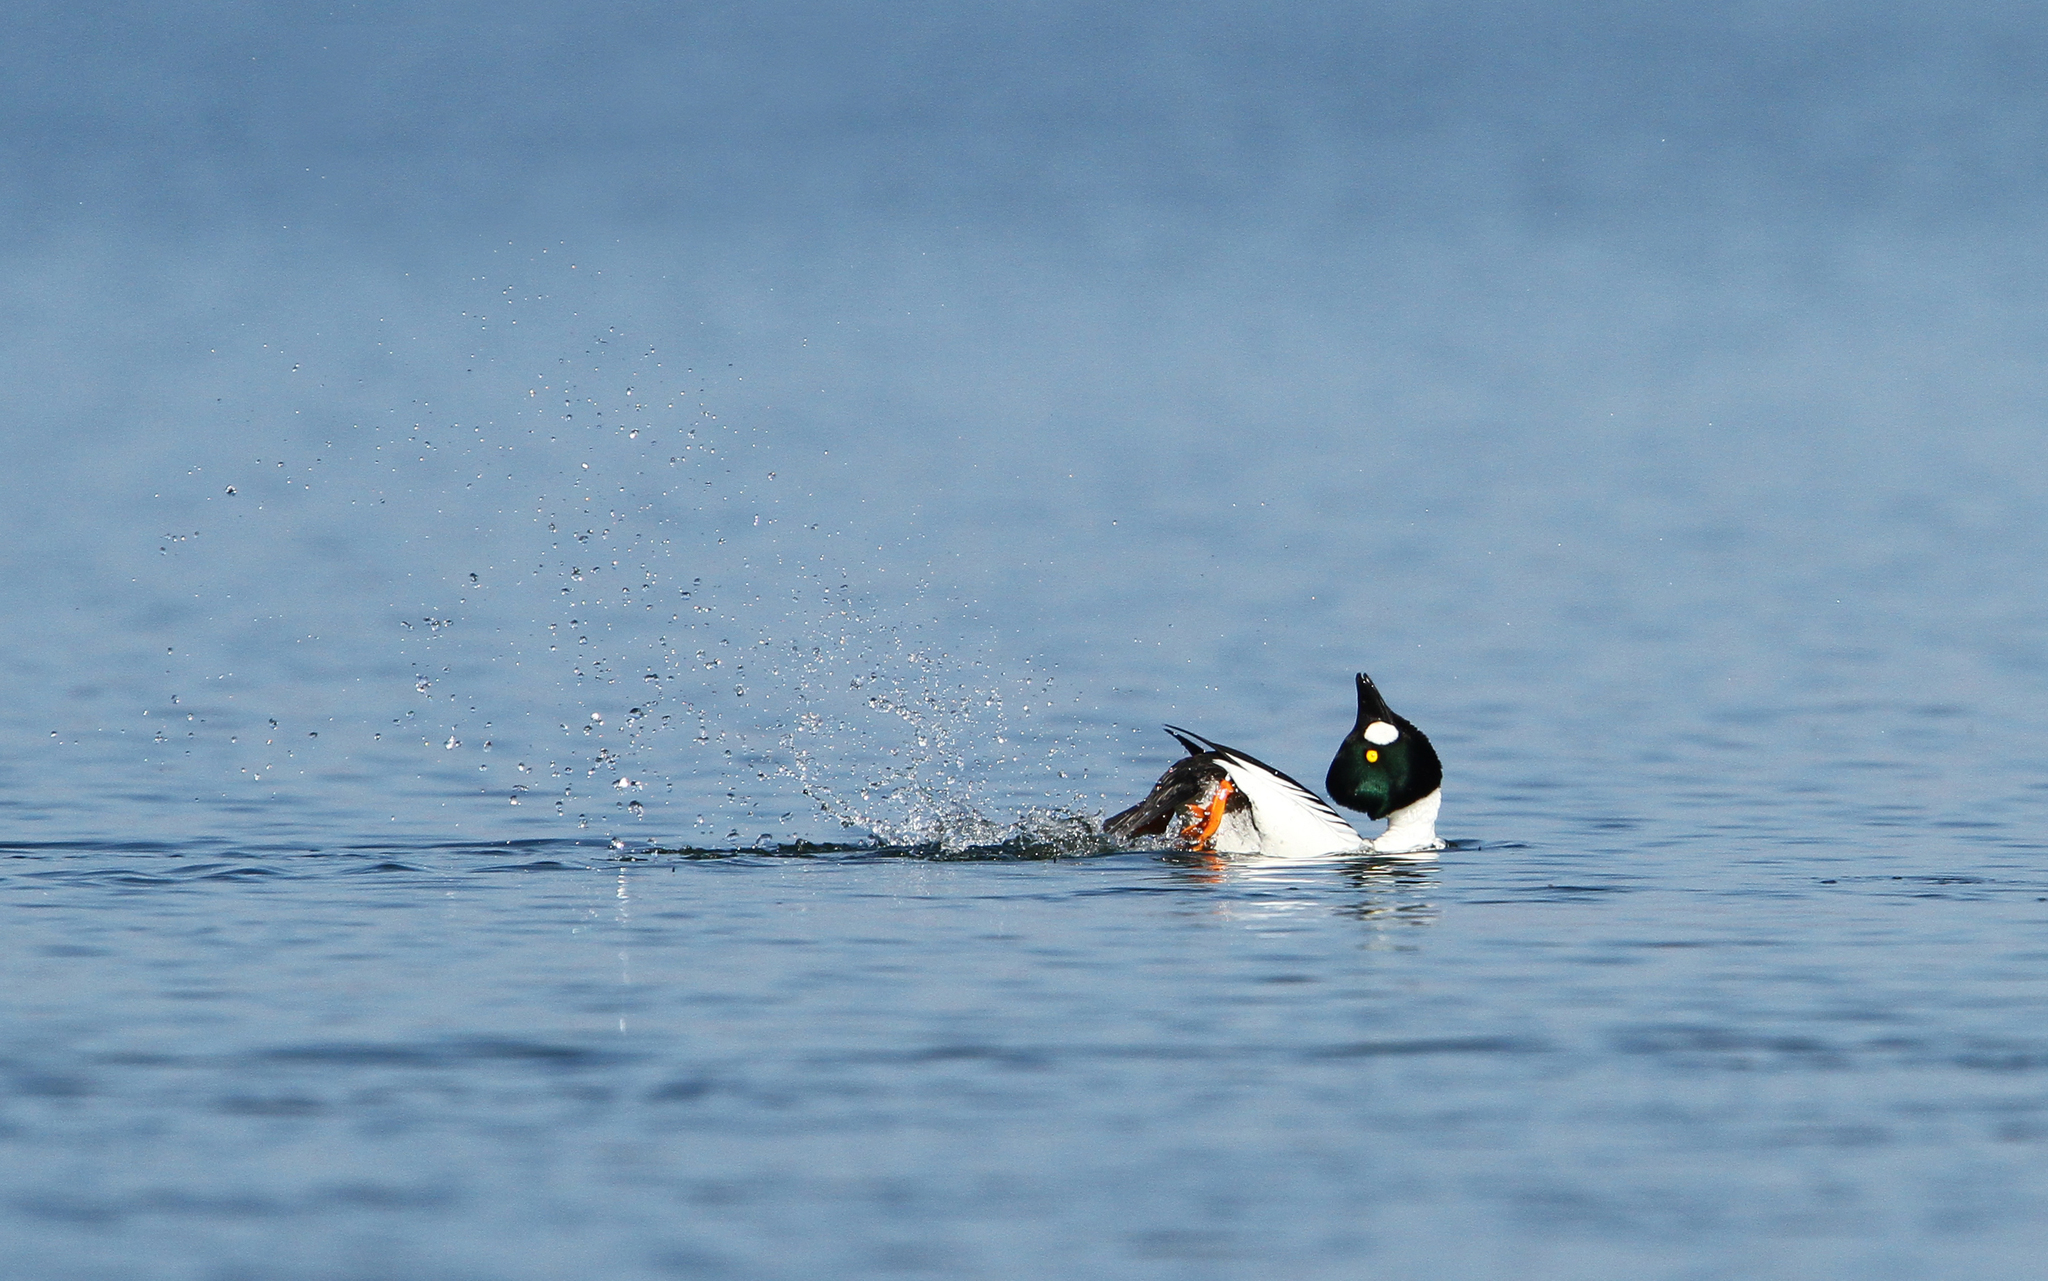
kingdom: Animalia
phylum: Chordata
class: Aves
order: Anseriformes
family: Anatidae
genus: Bucephala
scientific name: Bucephala clangula
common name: Common goldeneye
